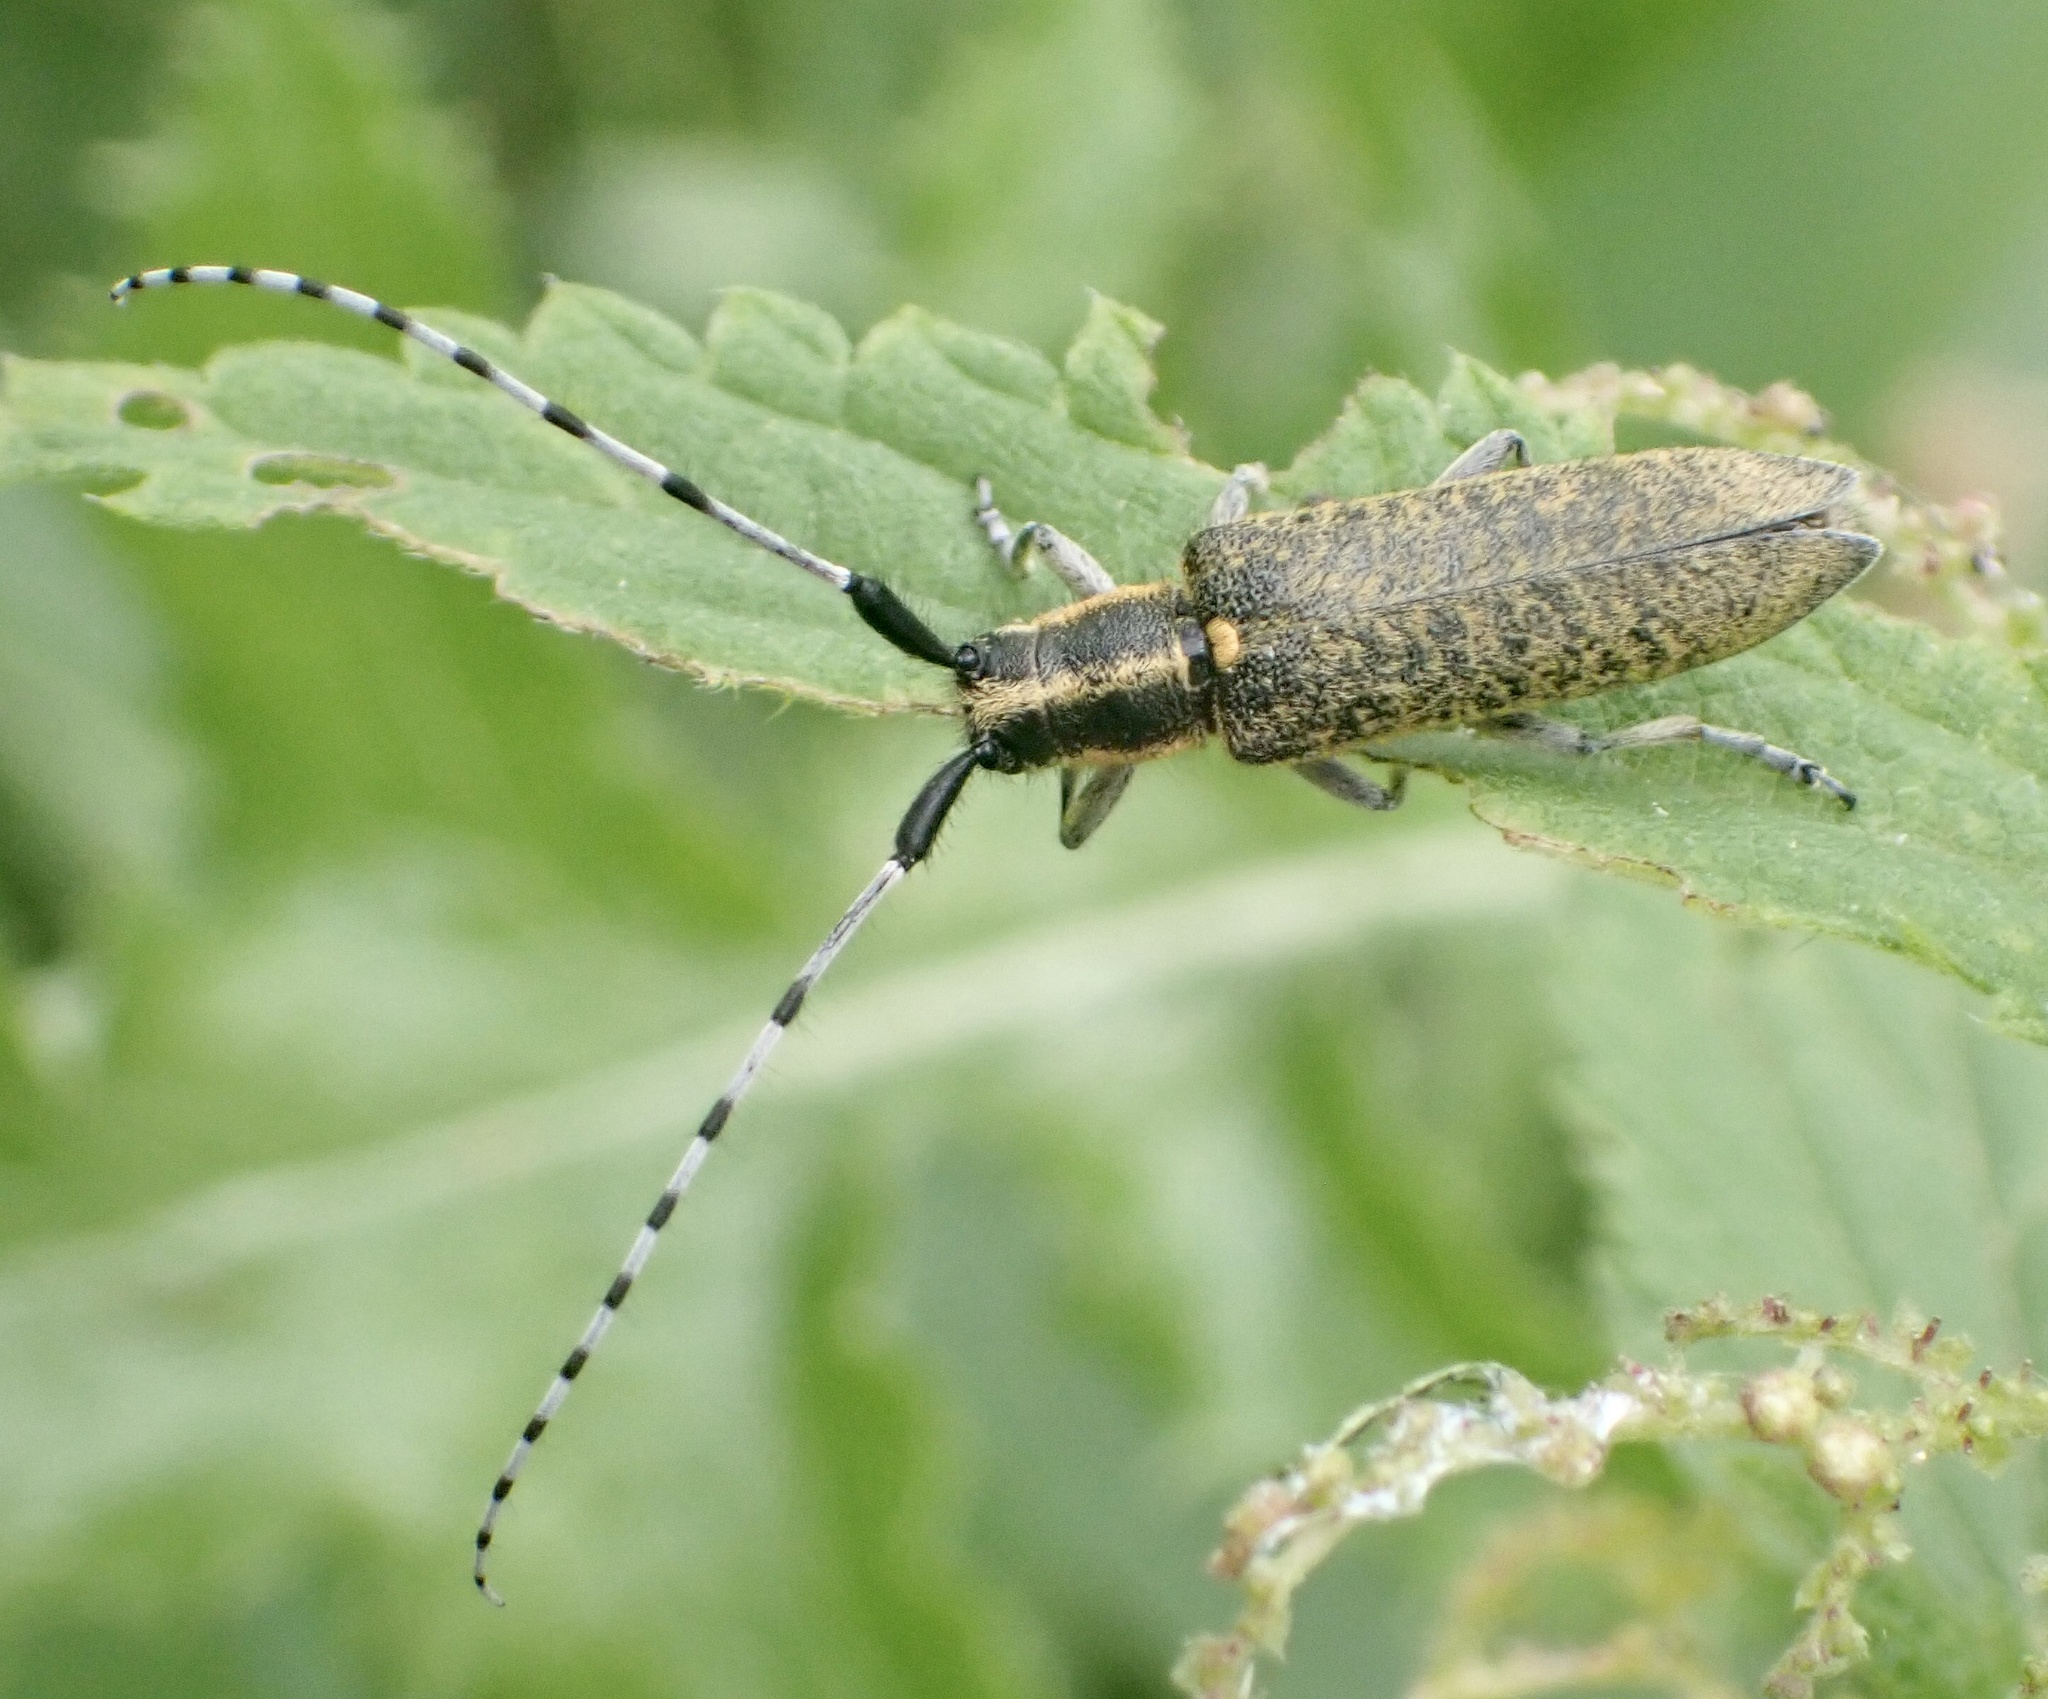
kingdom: Animalia
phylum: Arthropoda
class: Insecta
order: Coleoptera
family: Cerambycidae
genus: Agapanthia
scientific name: Agapanthia villosoviridescens
